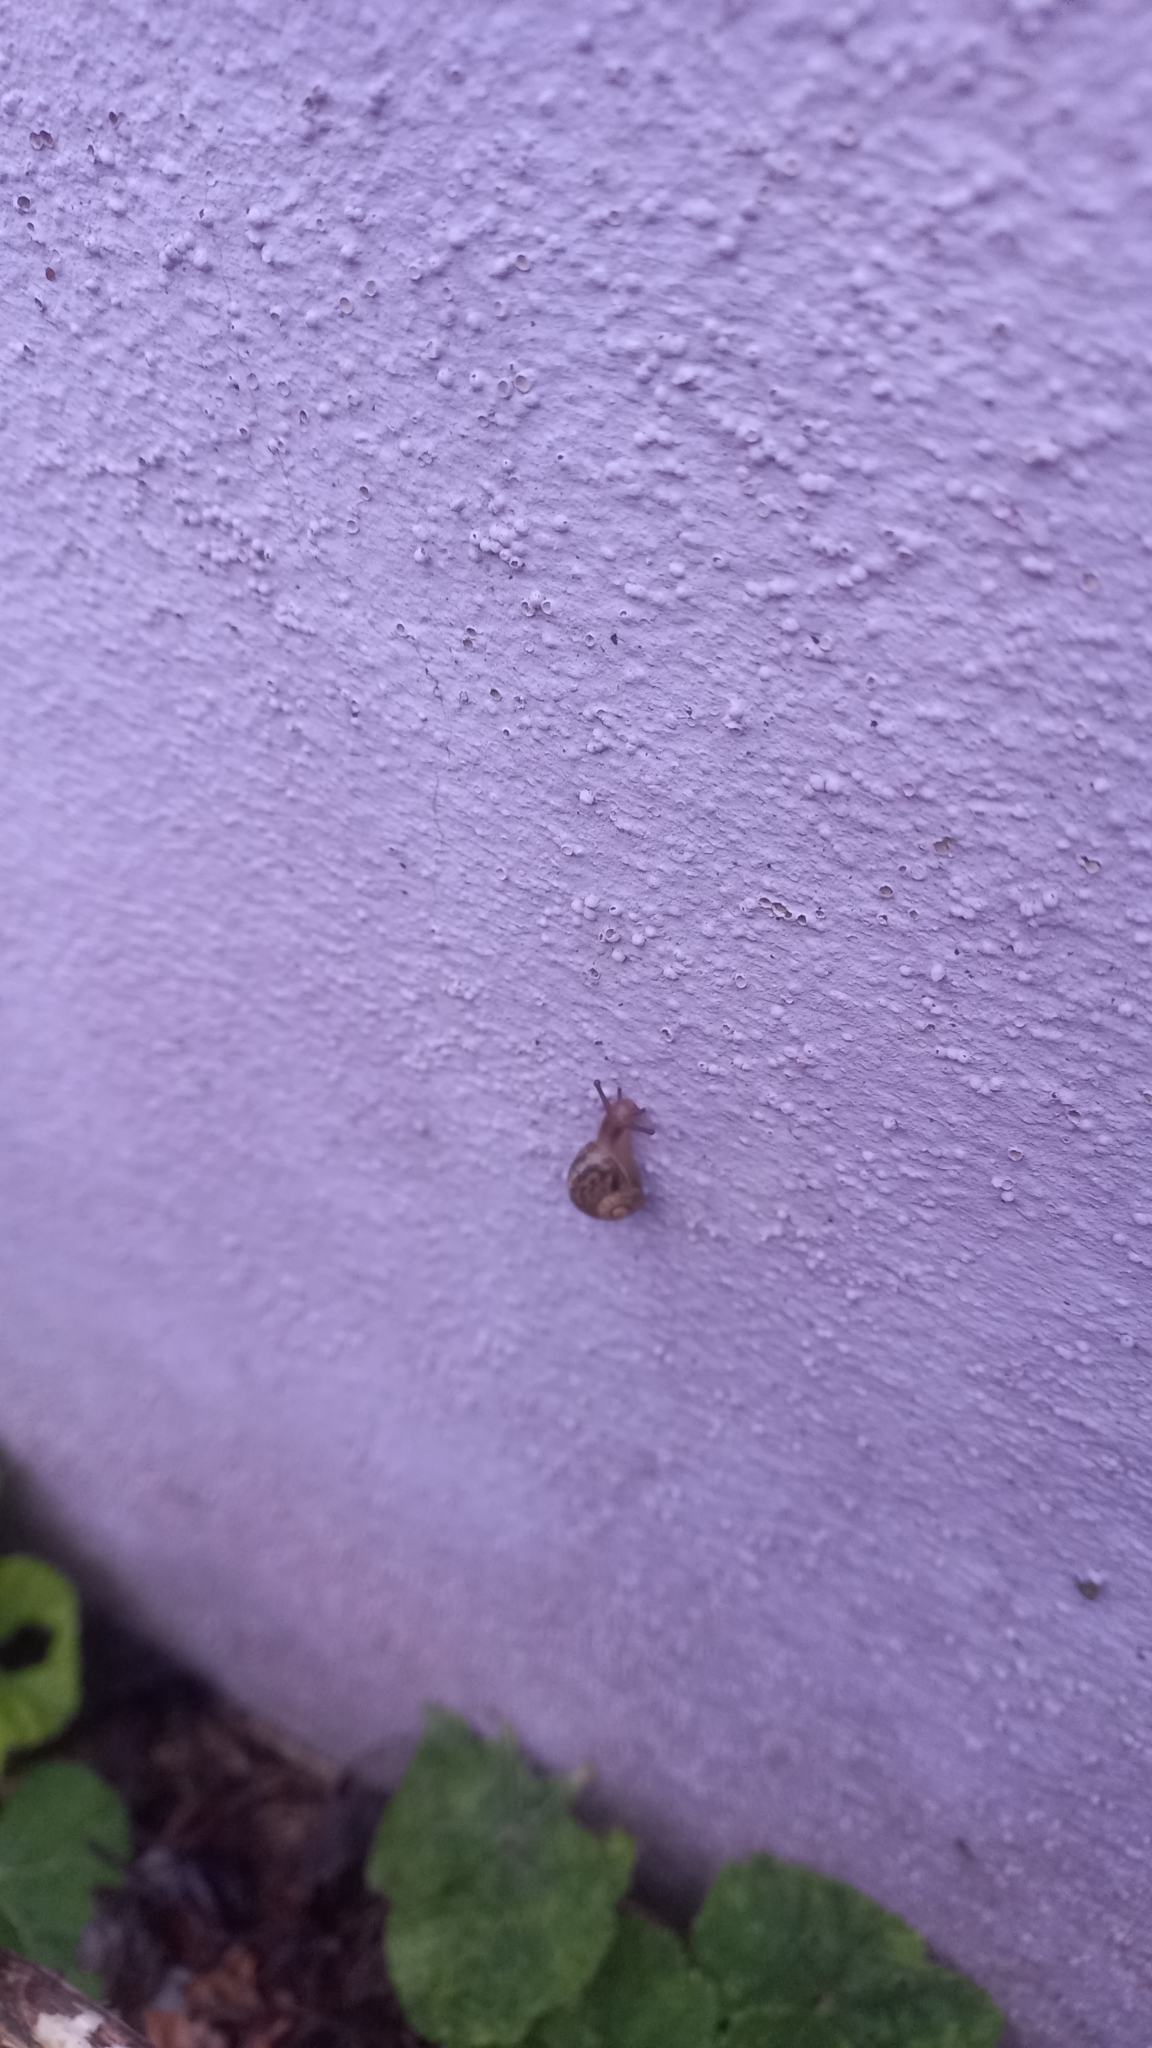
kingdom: Animalia
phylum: Mollusca
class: Gastropoda
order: Stylommatophora
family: Helicidae
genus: Cornu
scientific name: Cornu aspersum
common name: Brown garden snail
